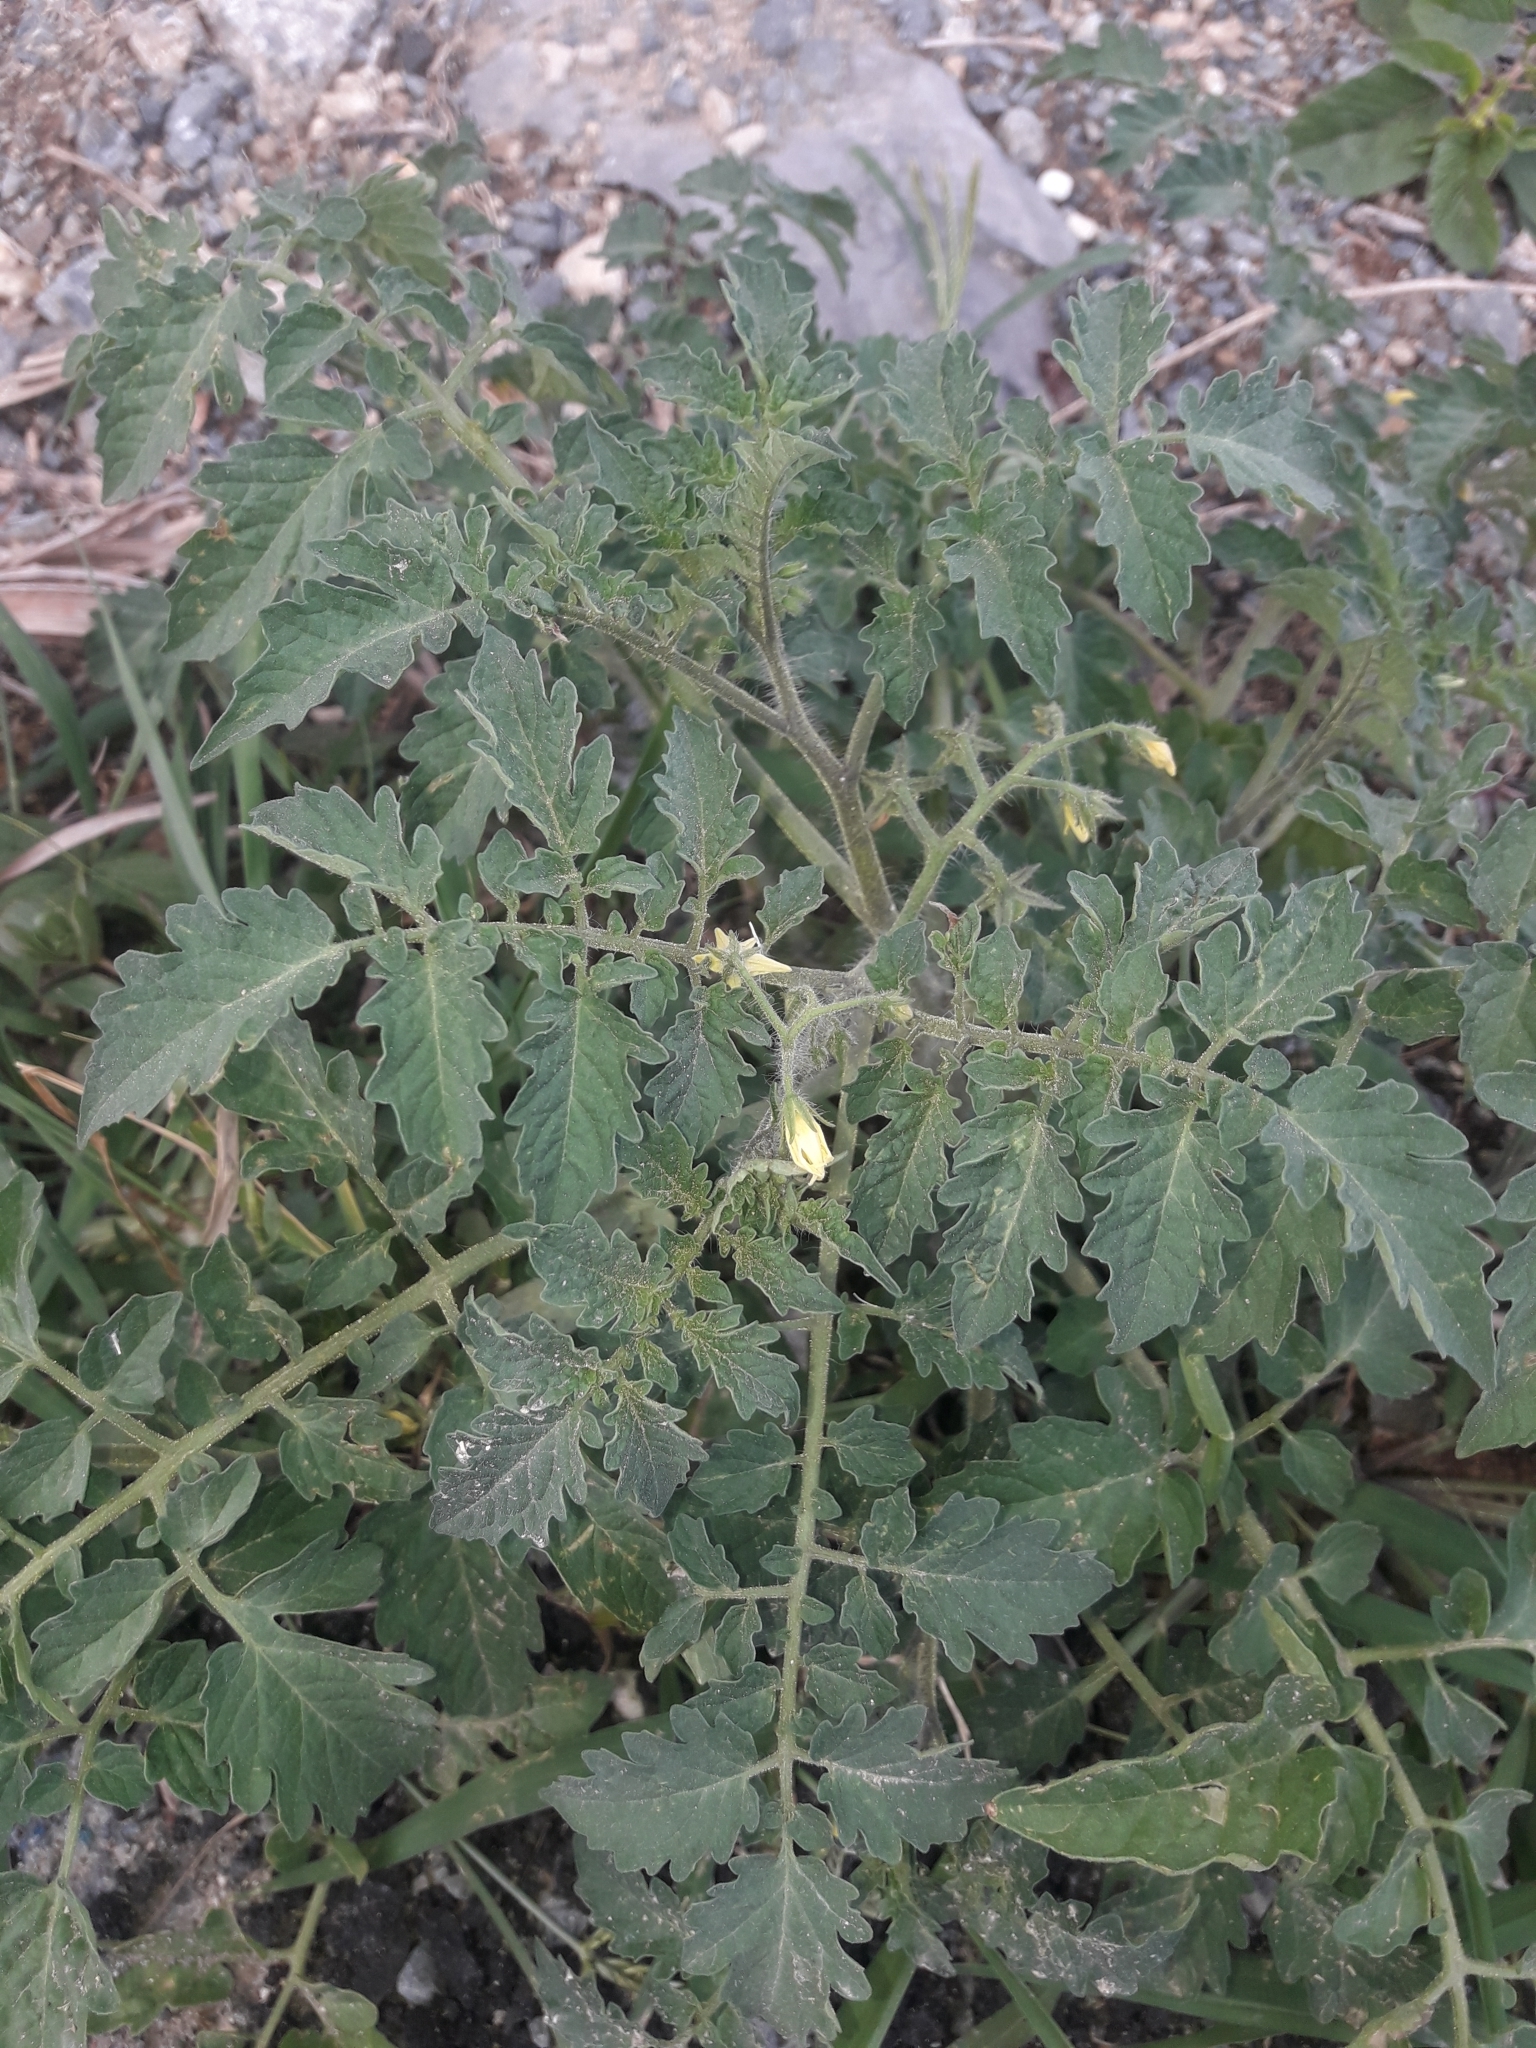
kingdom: Plantae
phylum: Tracheophyta
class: Magnoliopsida
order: Solanales
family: Solanaceae
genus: Solanum
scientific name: Solanum lycopersicum
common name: Garden tomato
